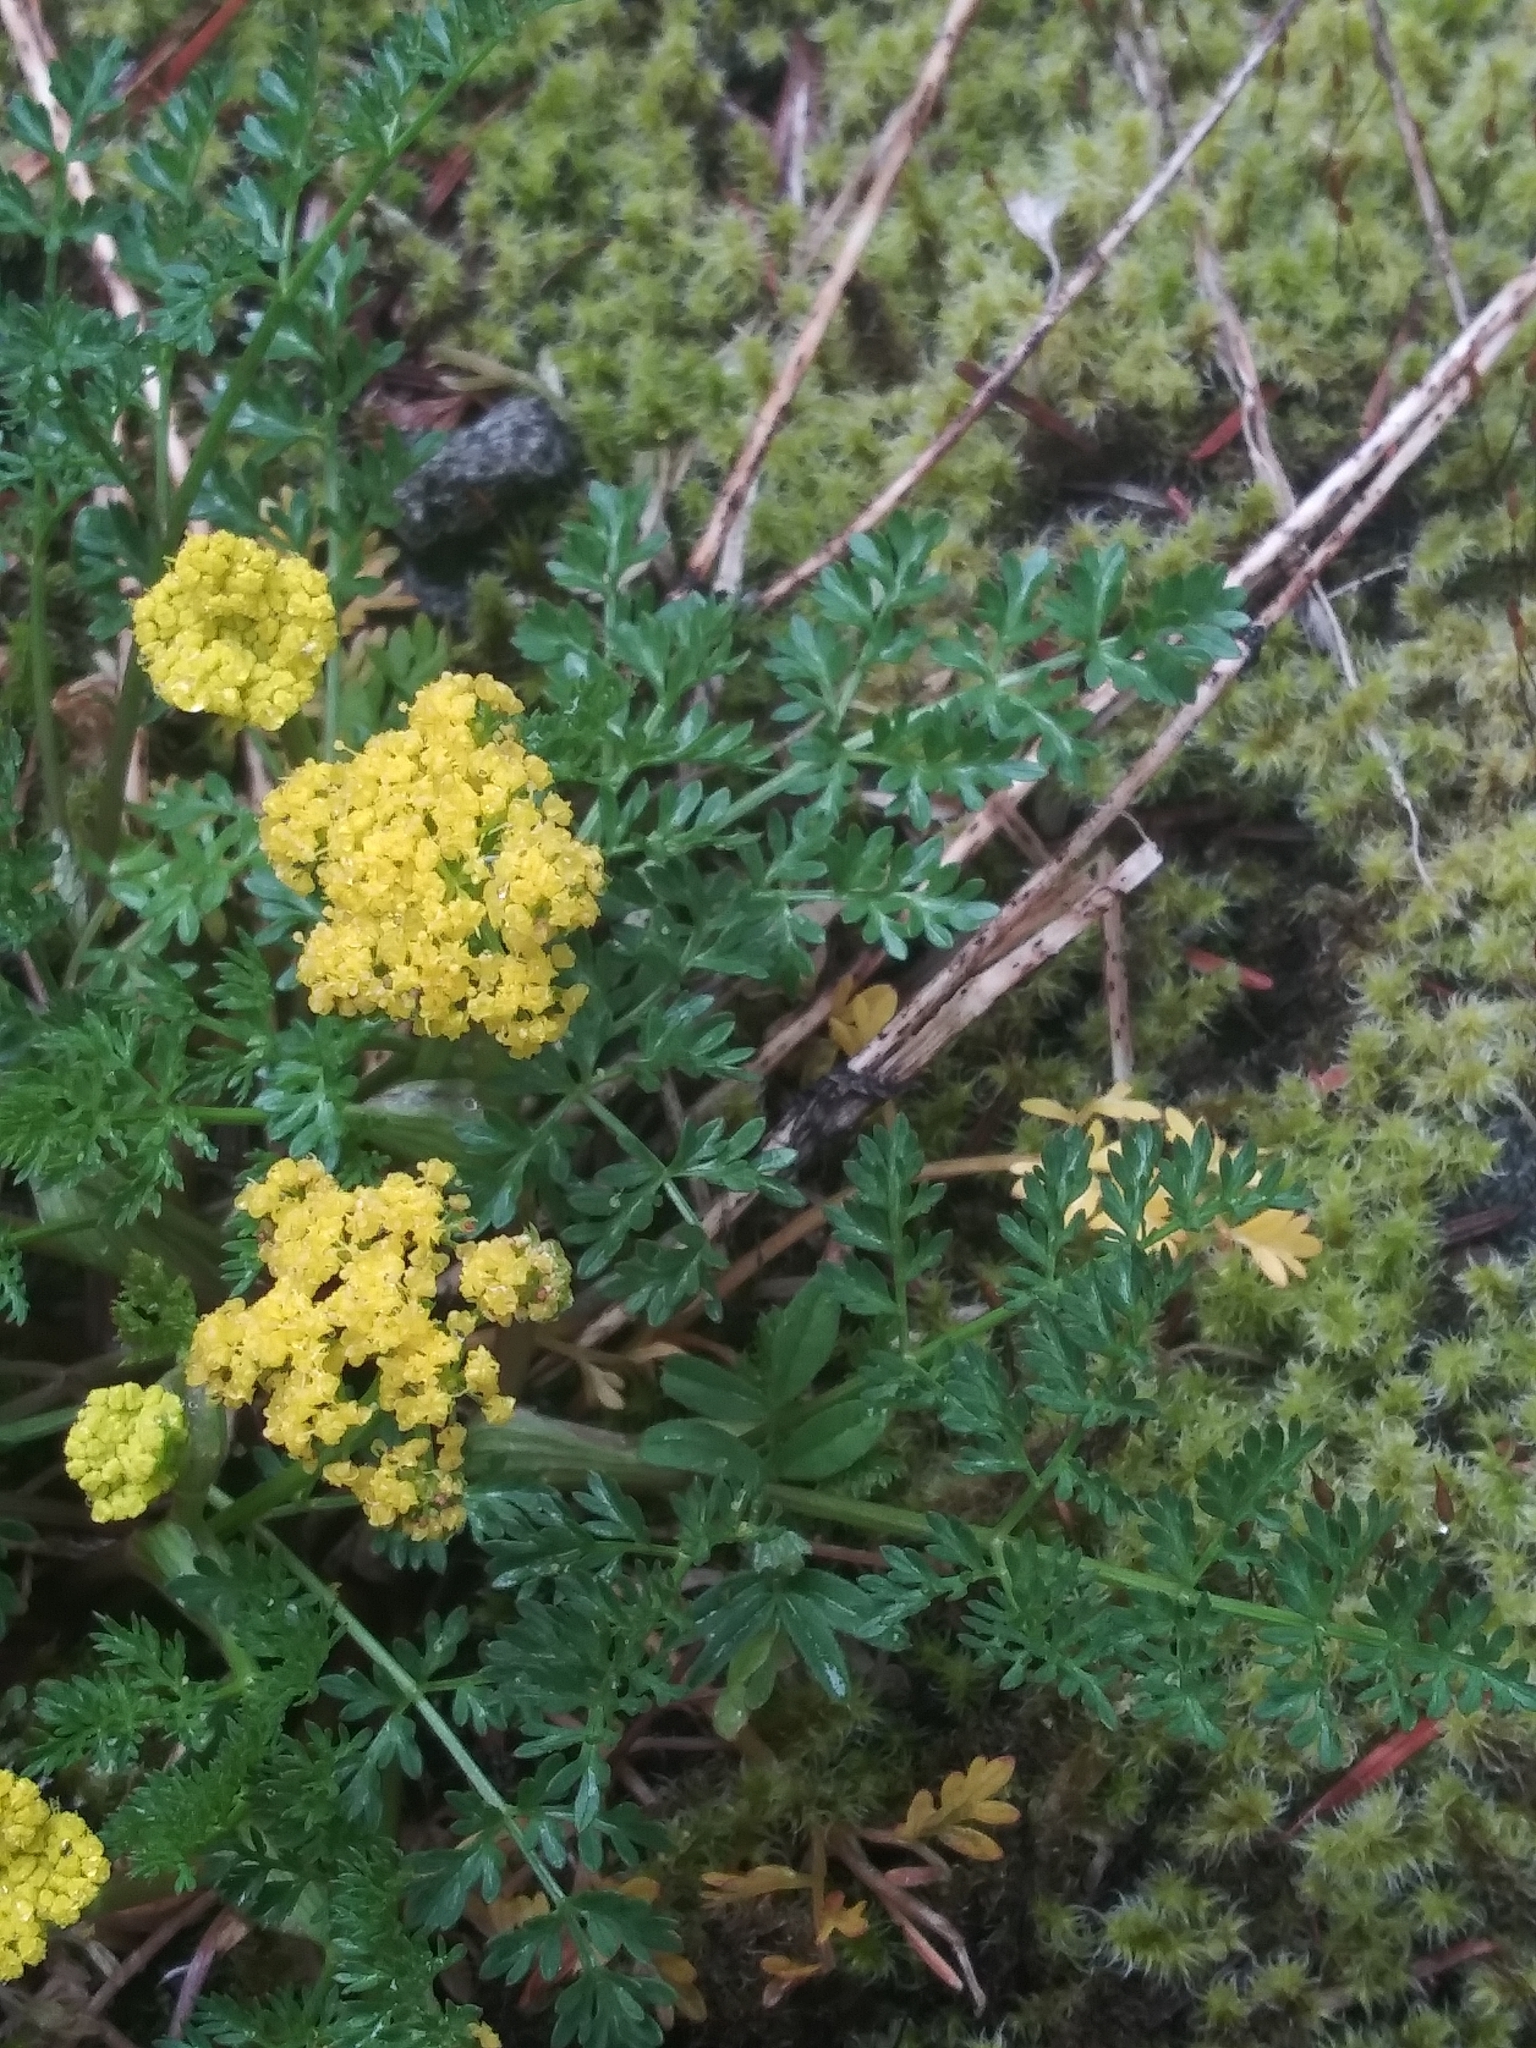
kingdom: Plantae
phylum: Tracheophyta
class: Magnoliopsida
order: Apiales
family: Apiaceae
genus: Lomatium
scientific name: Lomatium hallii
